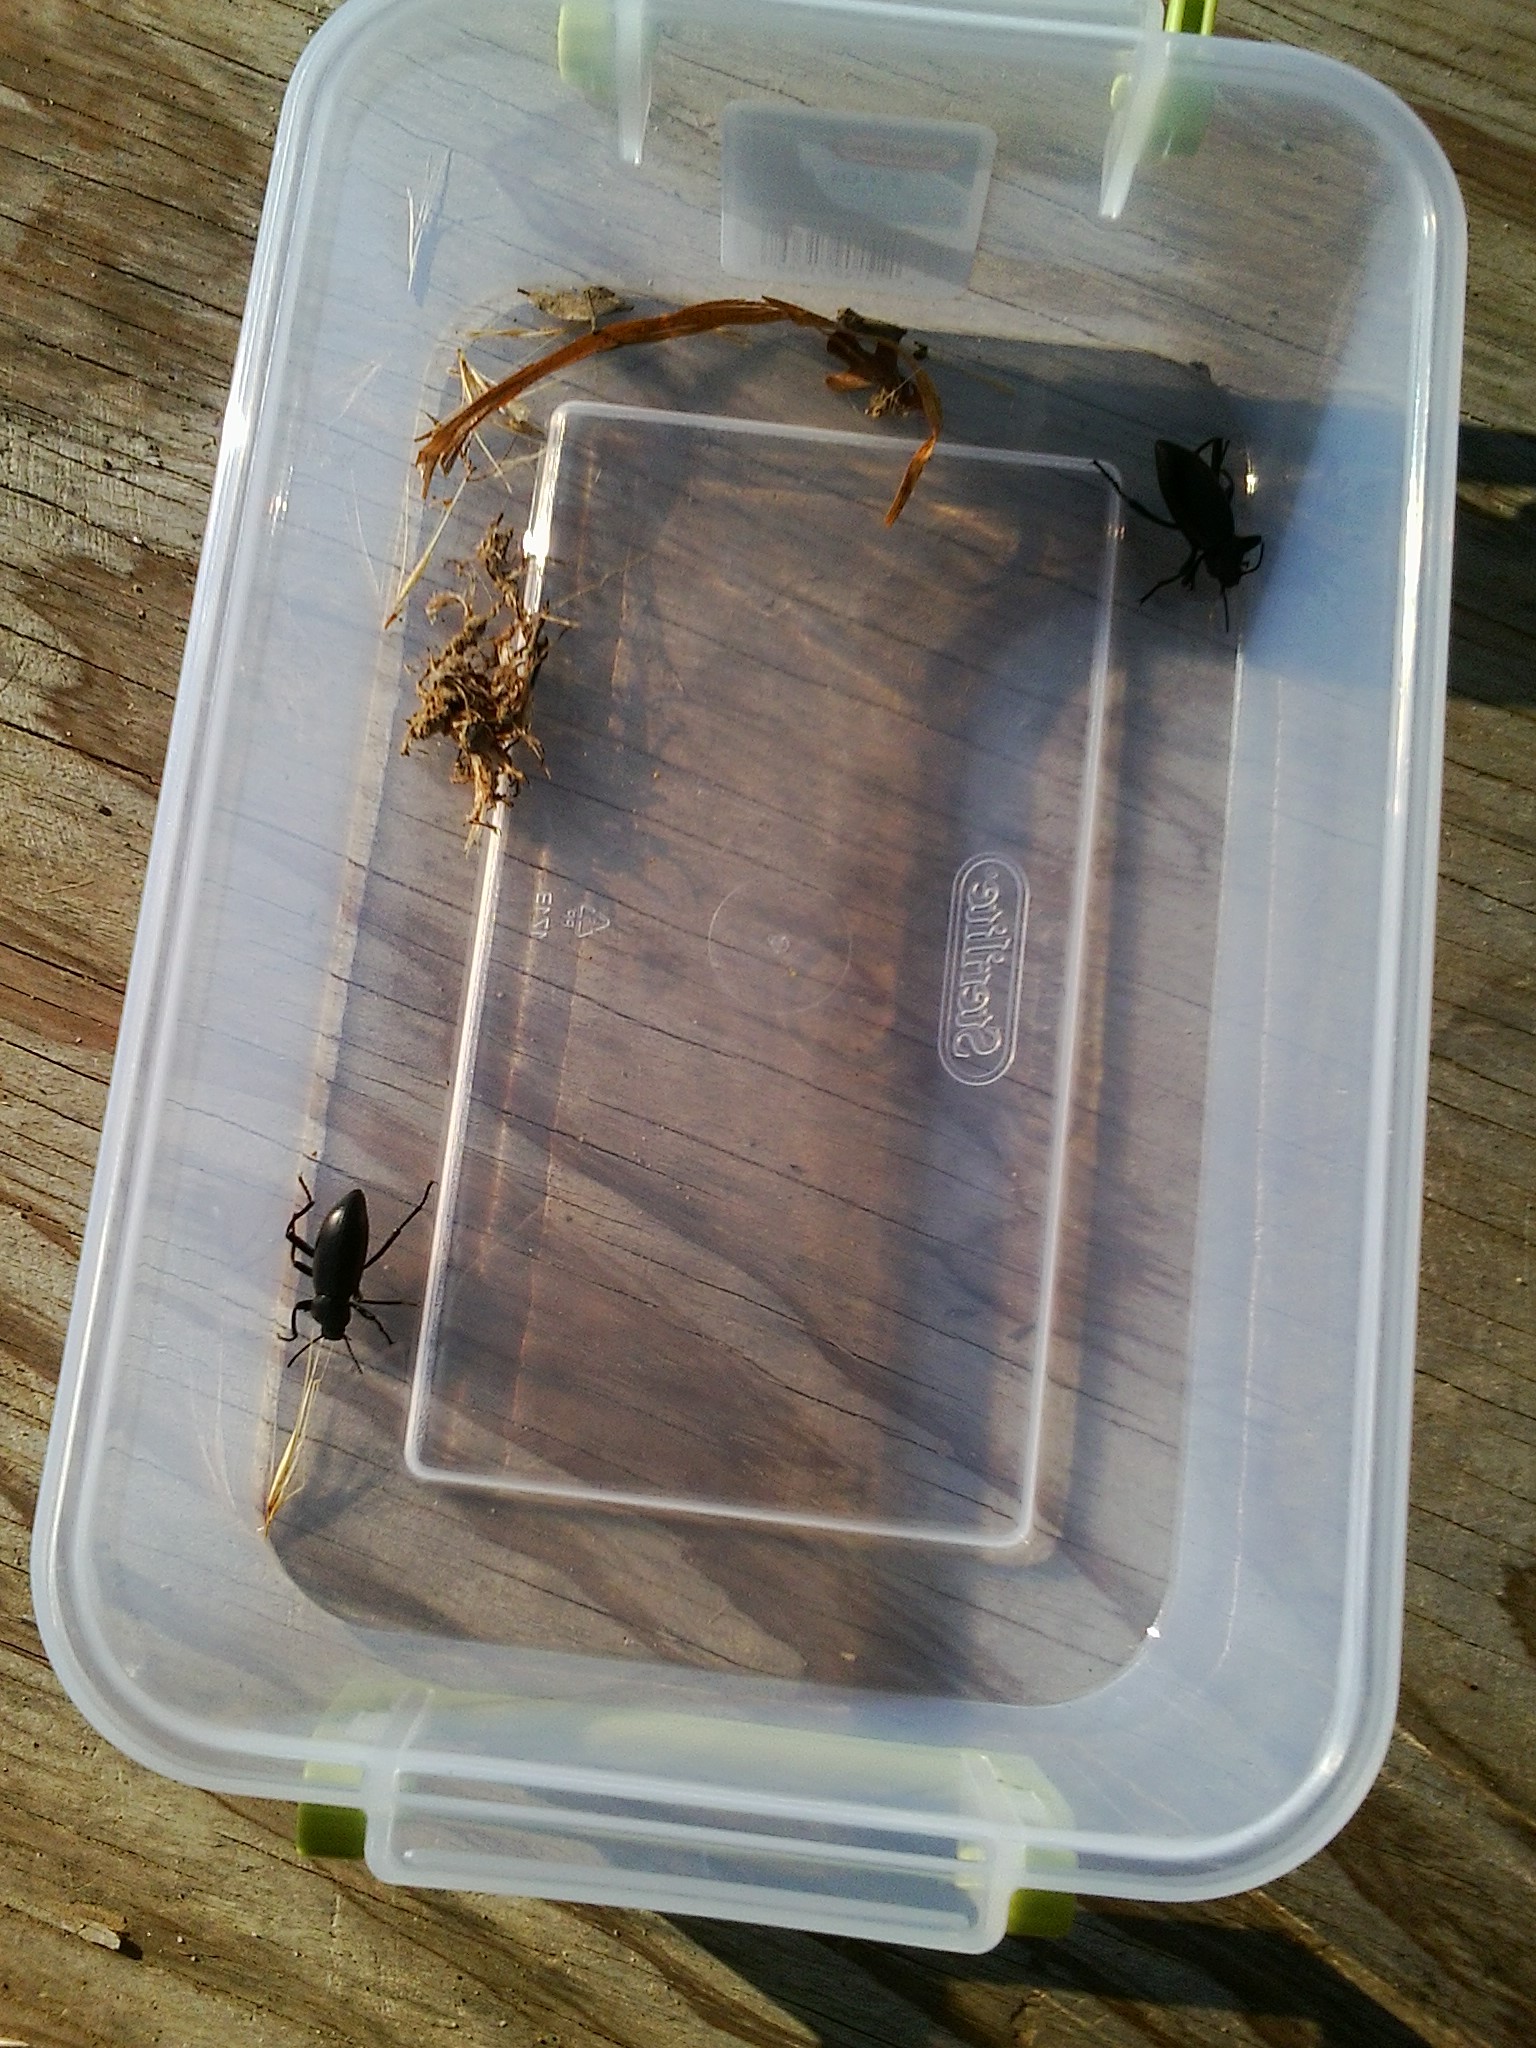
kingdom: Animalia
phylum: Arthropoda
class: Insecta
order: Coleoptera
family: Tenebrionidae
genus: Eleodes
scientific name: Eleodes dentipes
